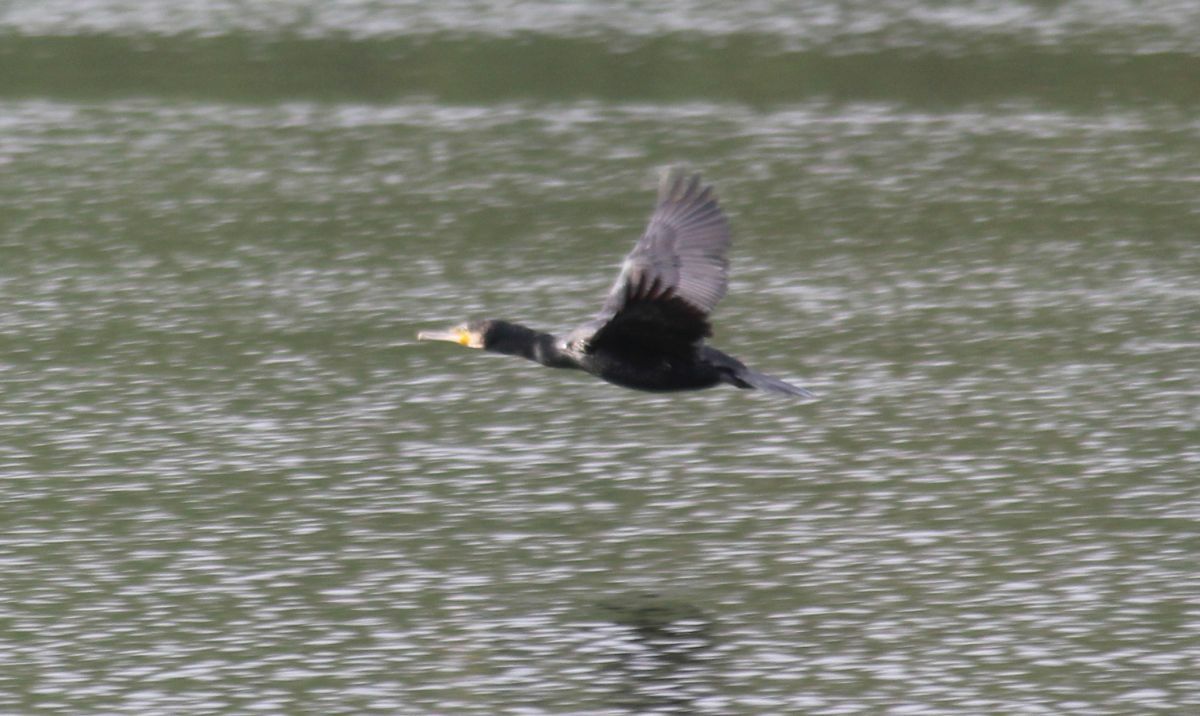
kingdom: Animalia
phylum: Chordata
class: Aves
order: Suliformes
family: Phalacrocoracidae
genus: Phalacrocorax
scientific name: Phalacrocorax carbo
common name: Great cormorant
